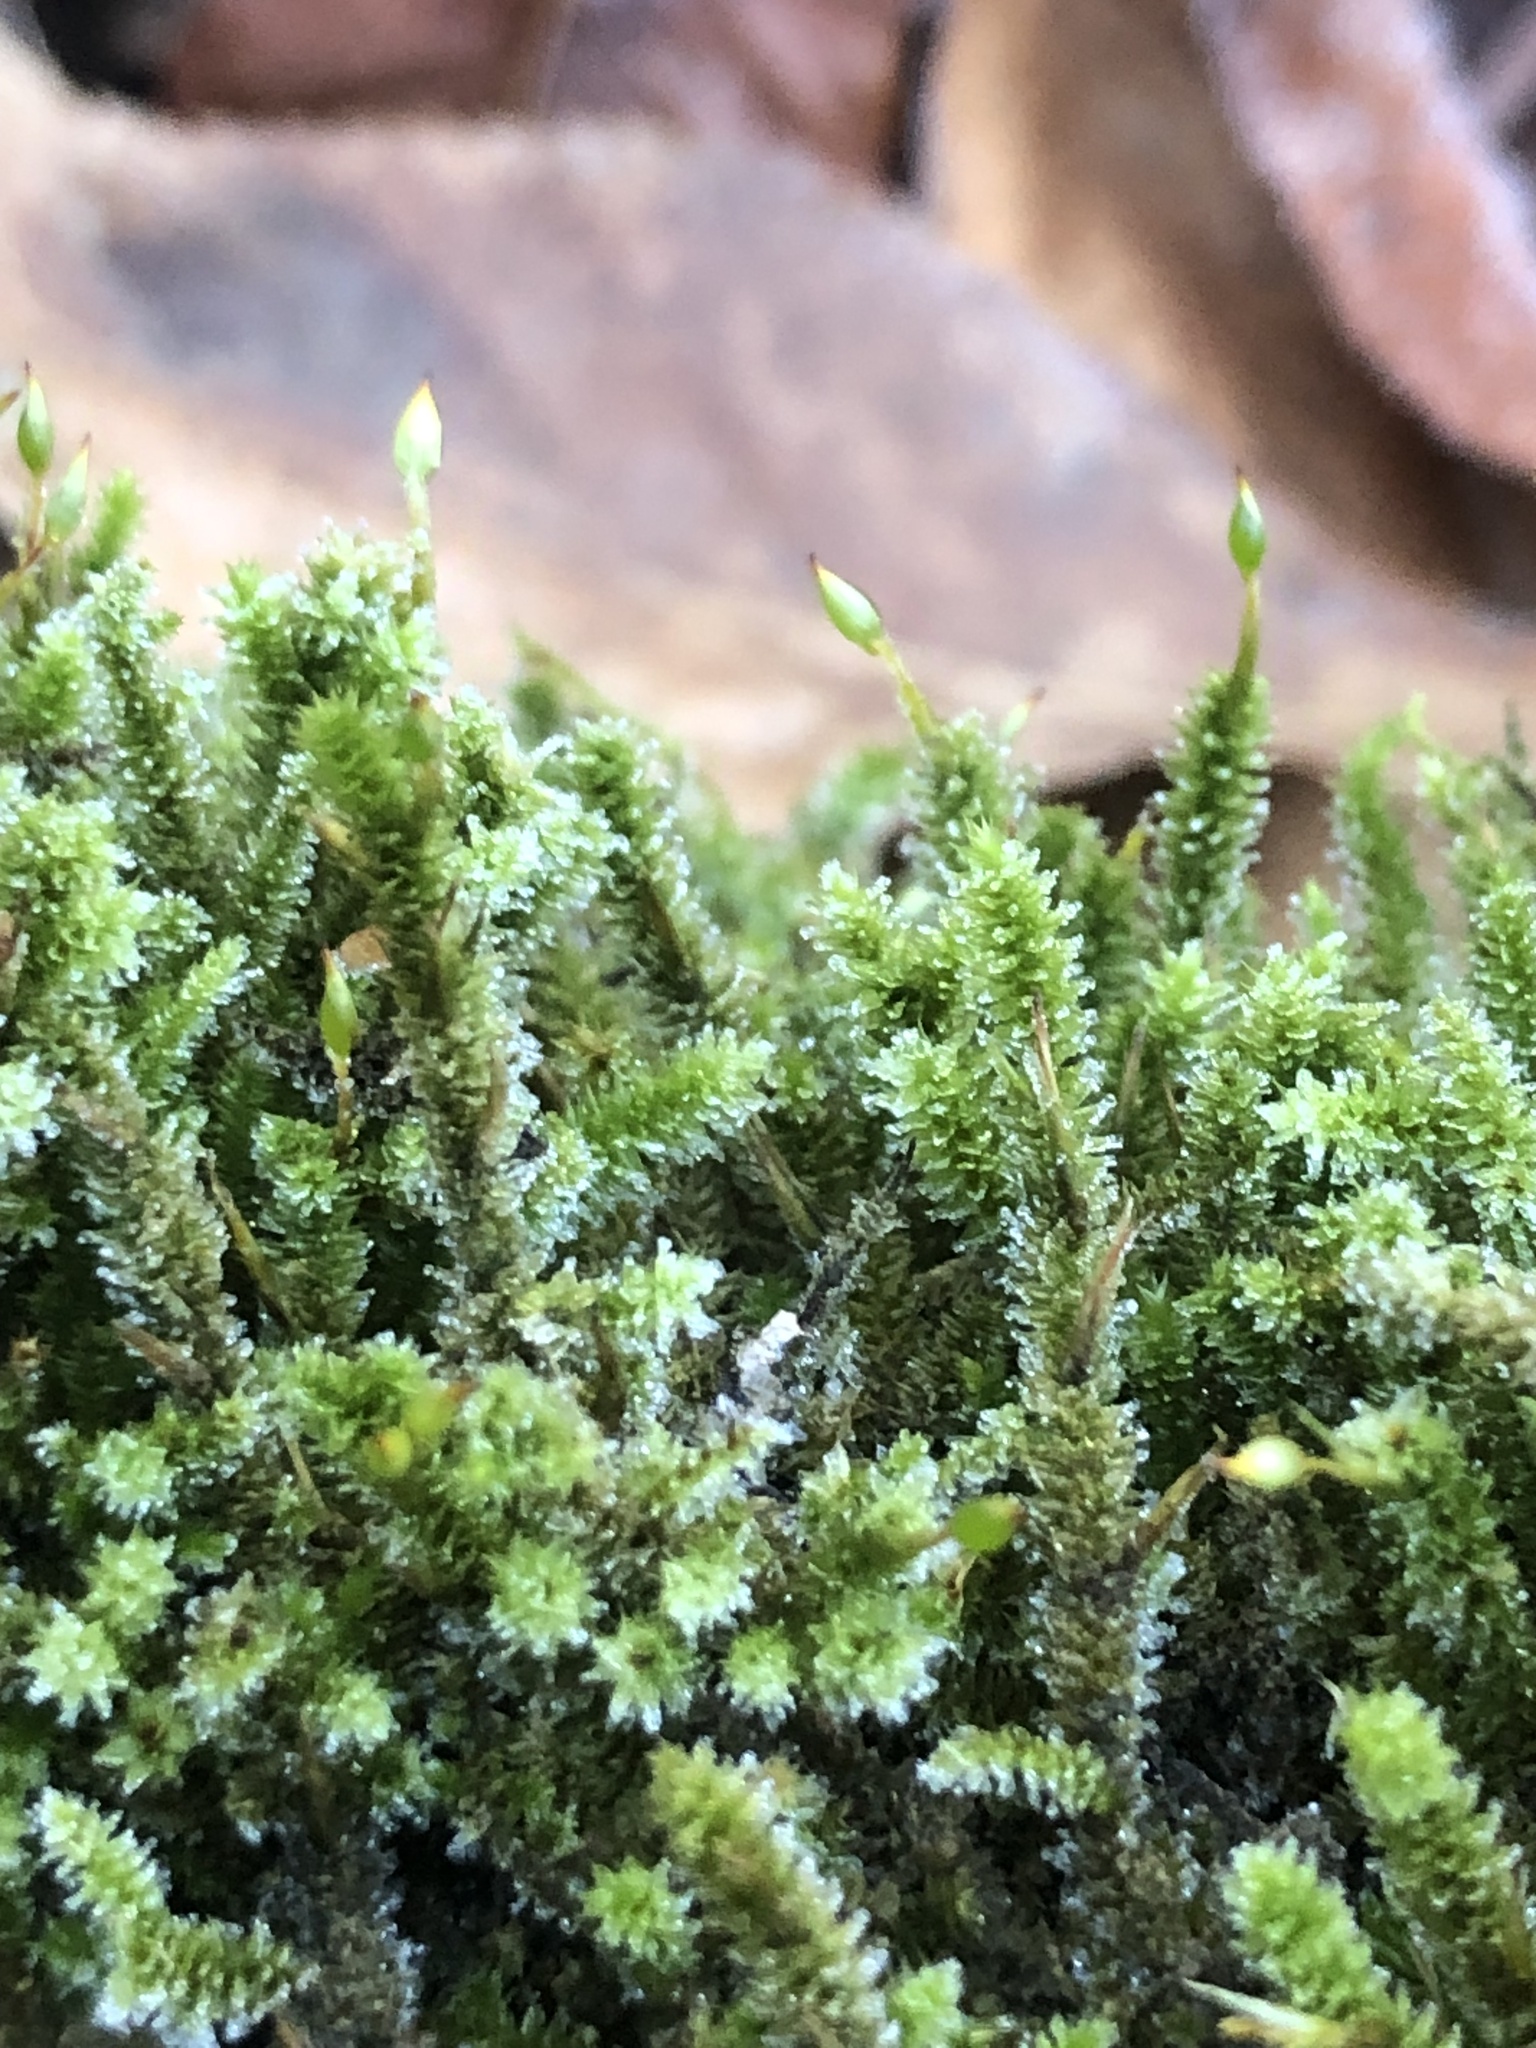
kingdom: Plantae
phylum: Bryophyta
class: Bryopsida
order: Hypnales
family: Leucodontaceae
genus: Leucodon
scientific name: Leucodon julaceus
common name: Smooth hook moss
